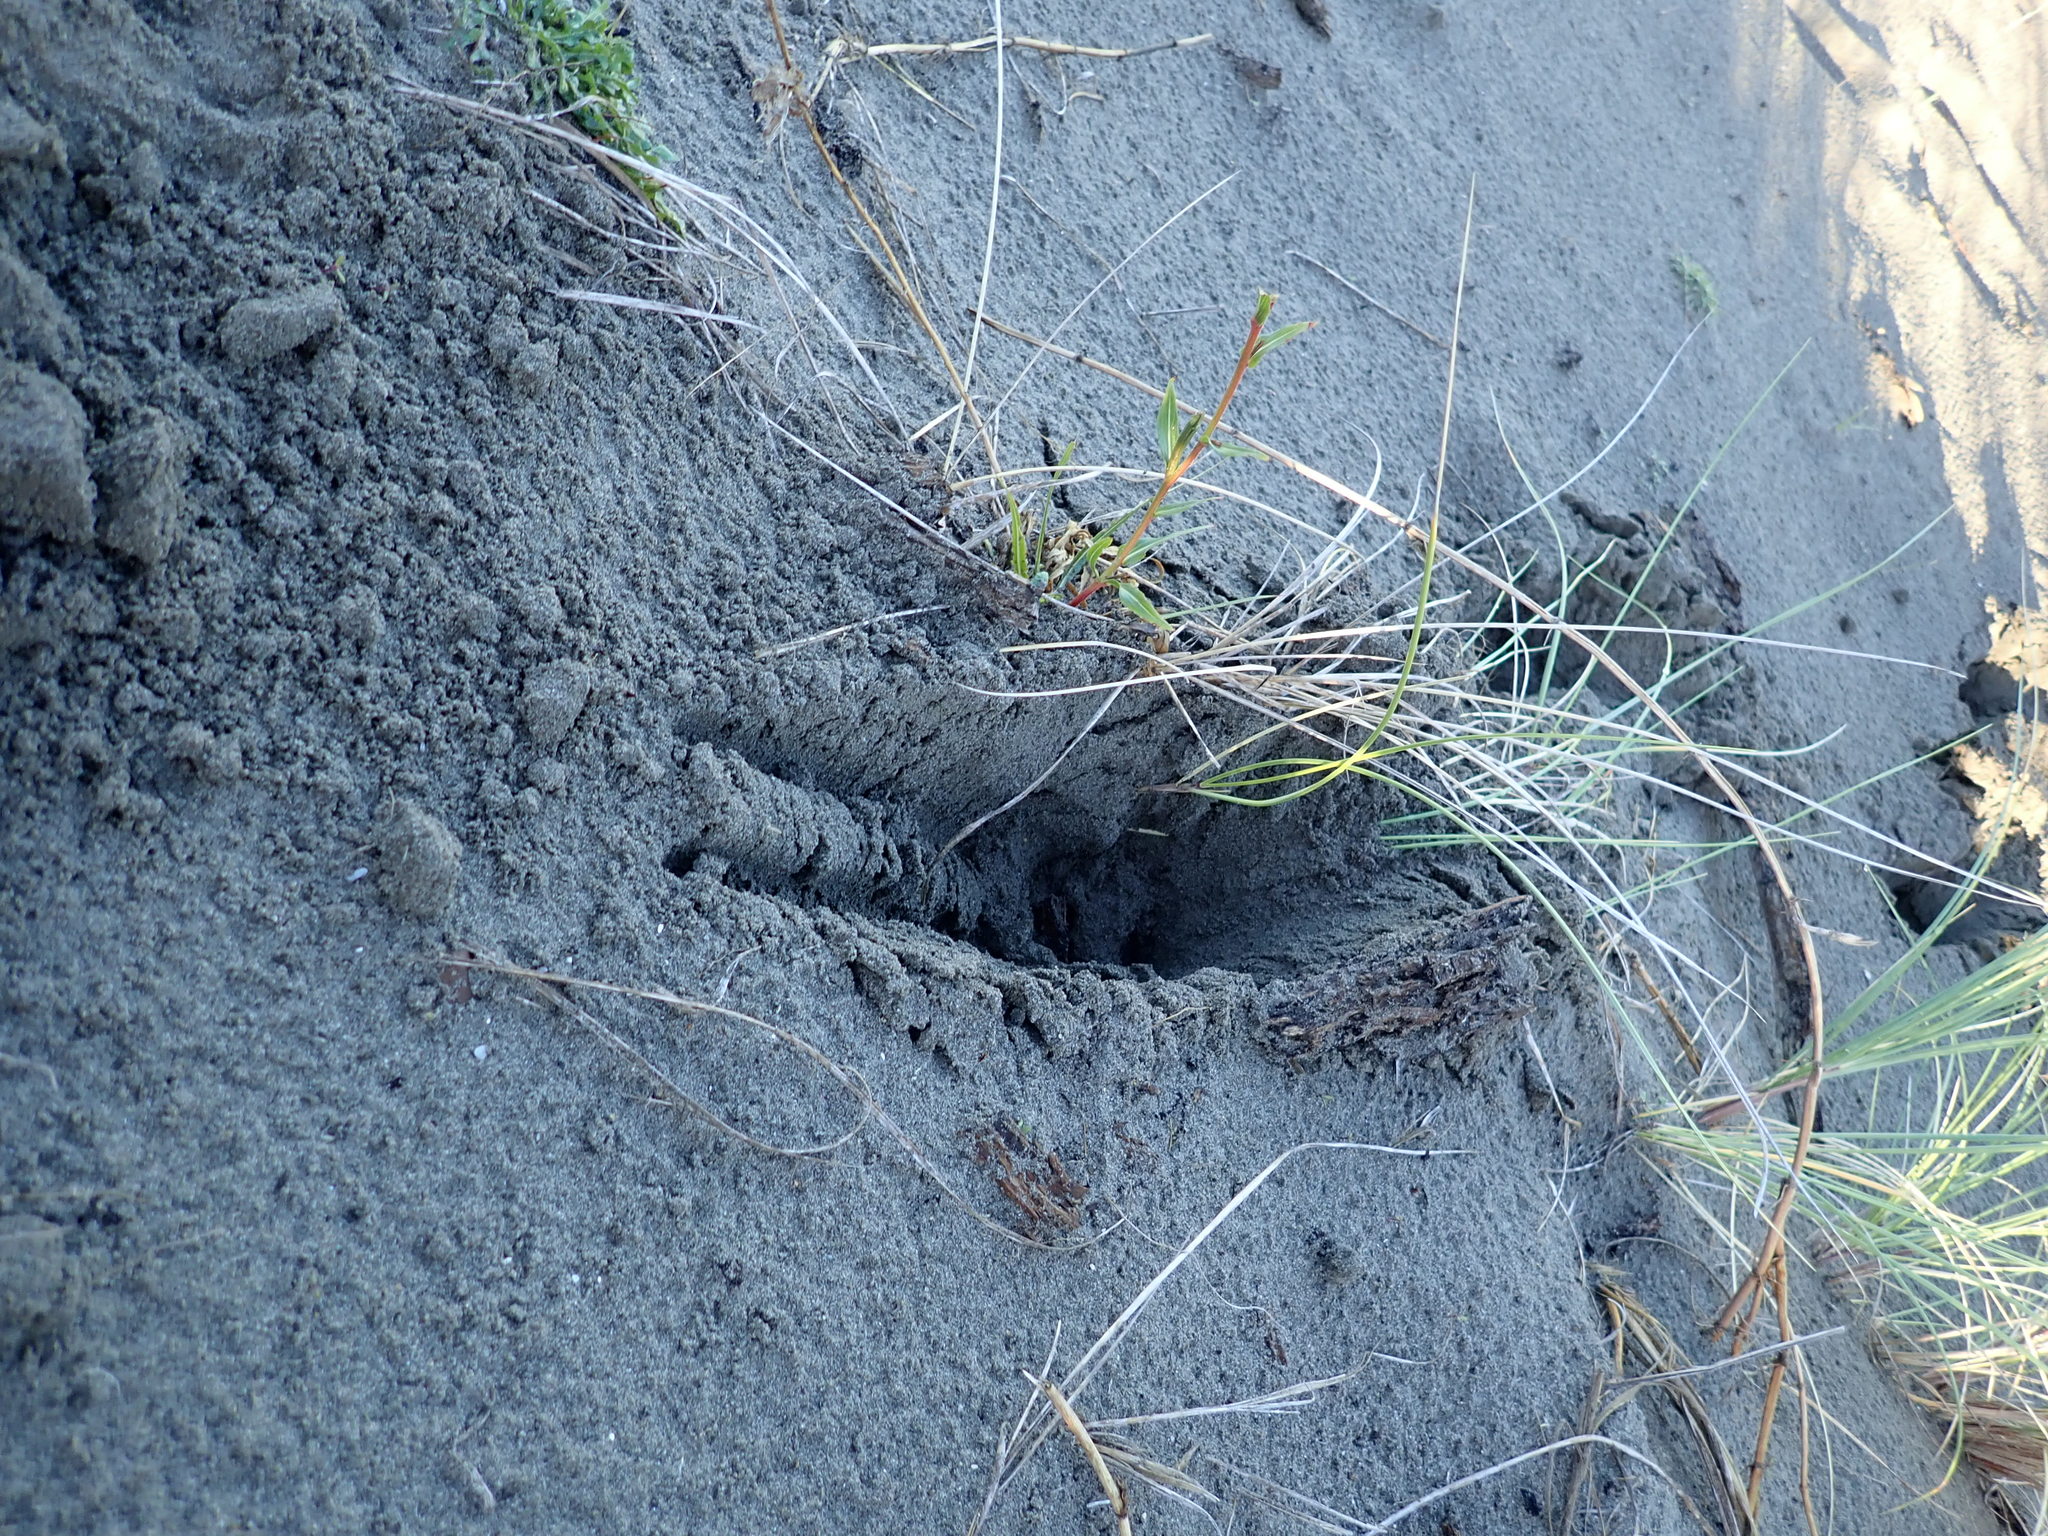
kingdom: Animalia
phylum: Chordata
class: Mammalia
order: Artiodactyla
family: Cervidae
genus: Rusa
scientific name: Rusa unicolor
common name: Sambar
